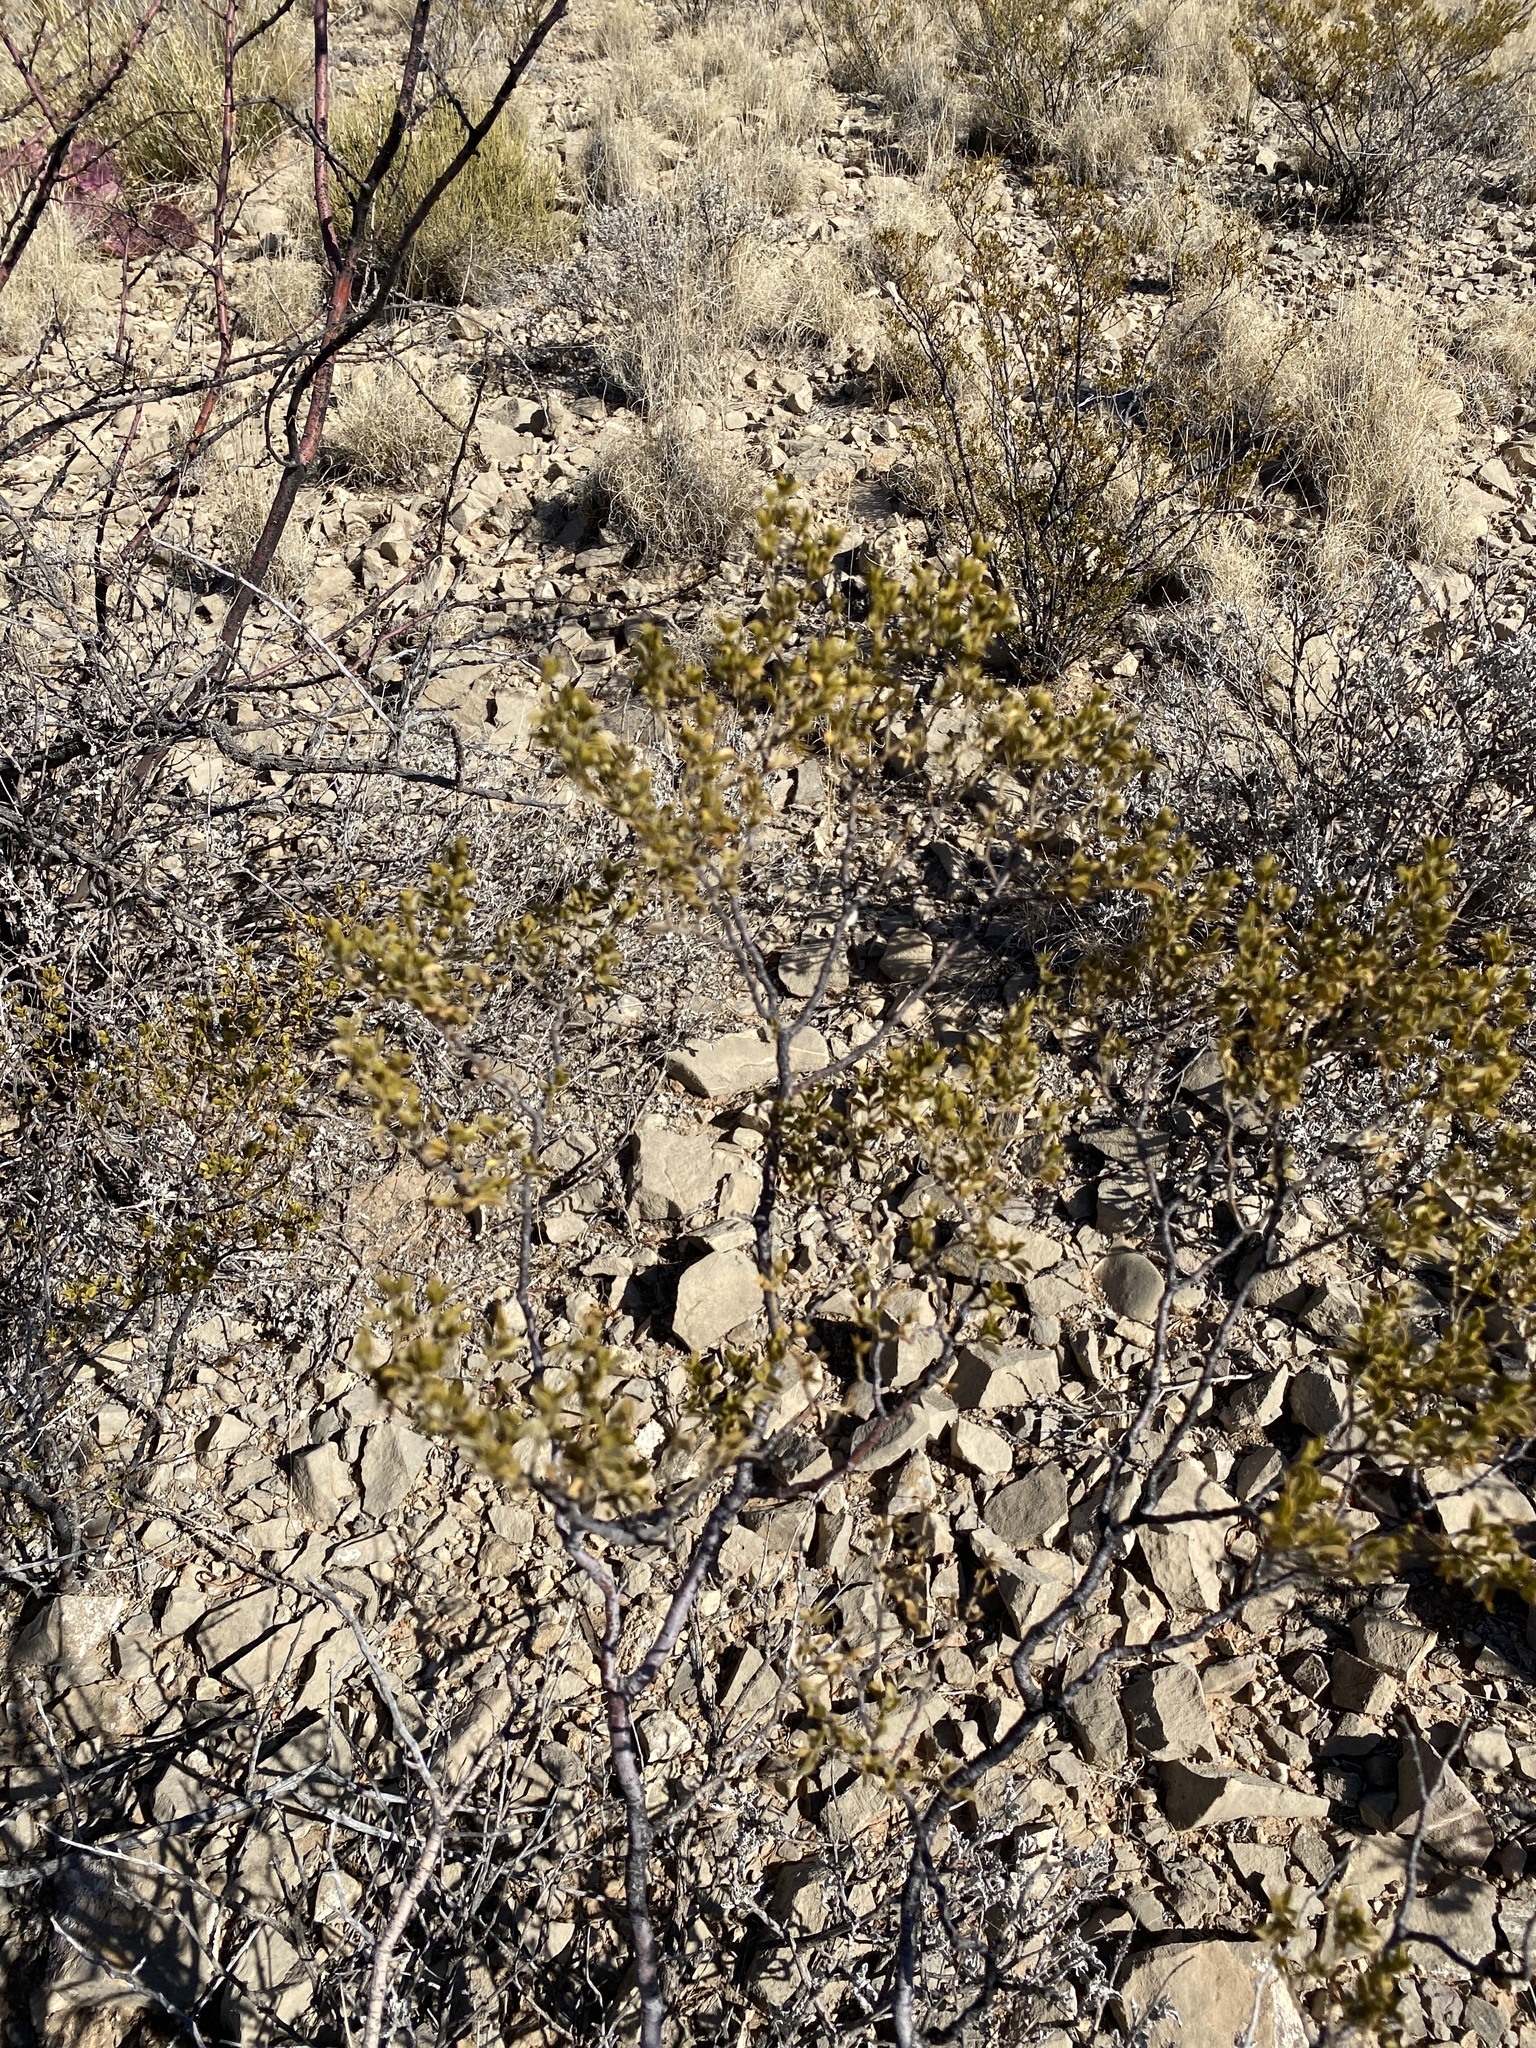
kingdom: Plantae
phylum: Tracheophyta
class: Magnoliopsida
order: Zygophyllales
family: Zygophyllaceae
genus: Larrea
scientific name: Larrea tridentata
